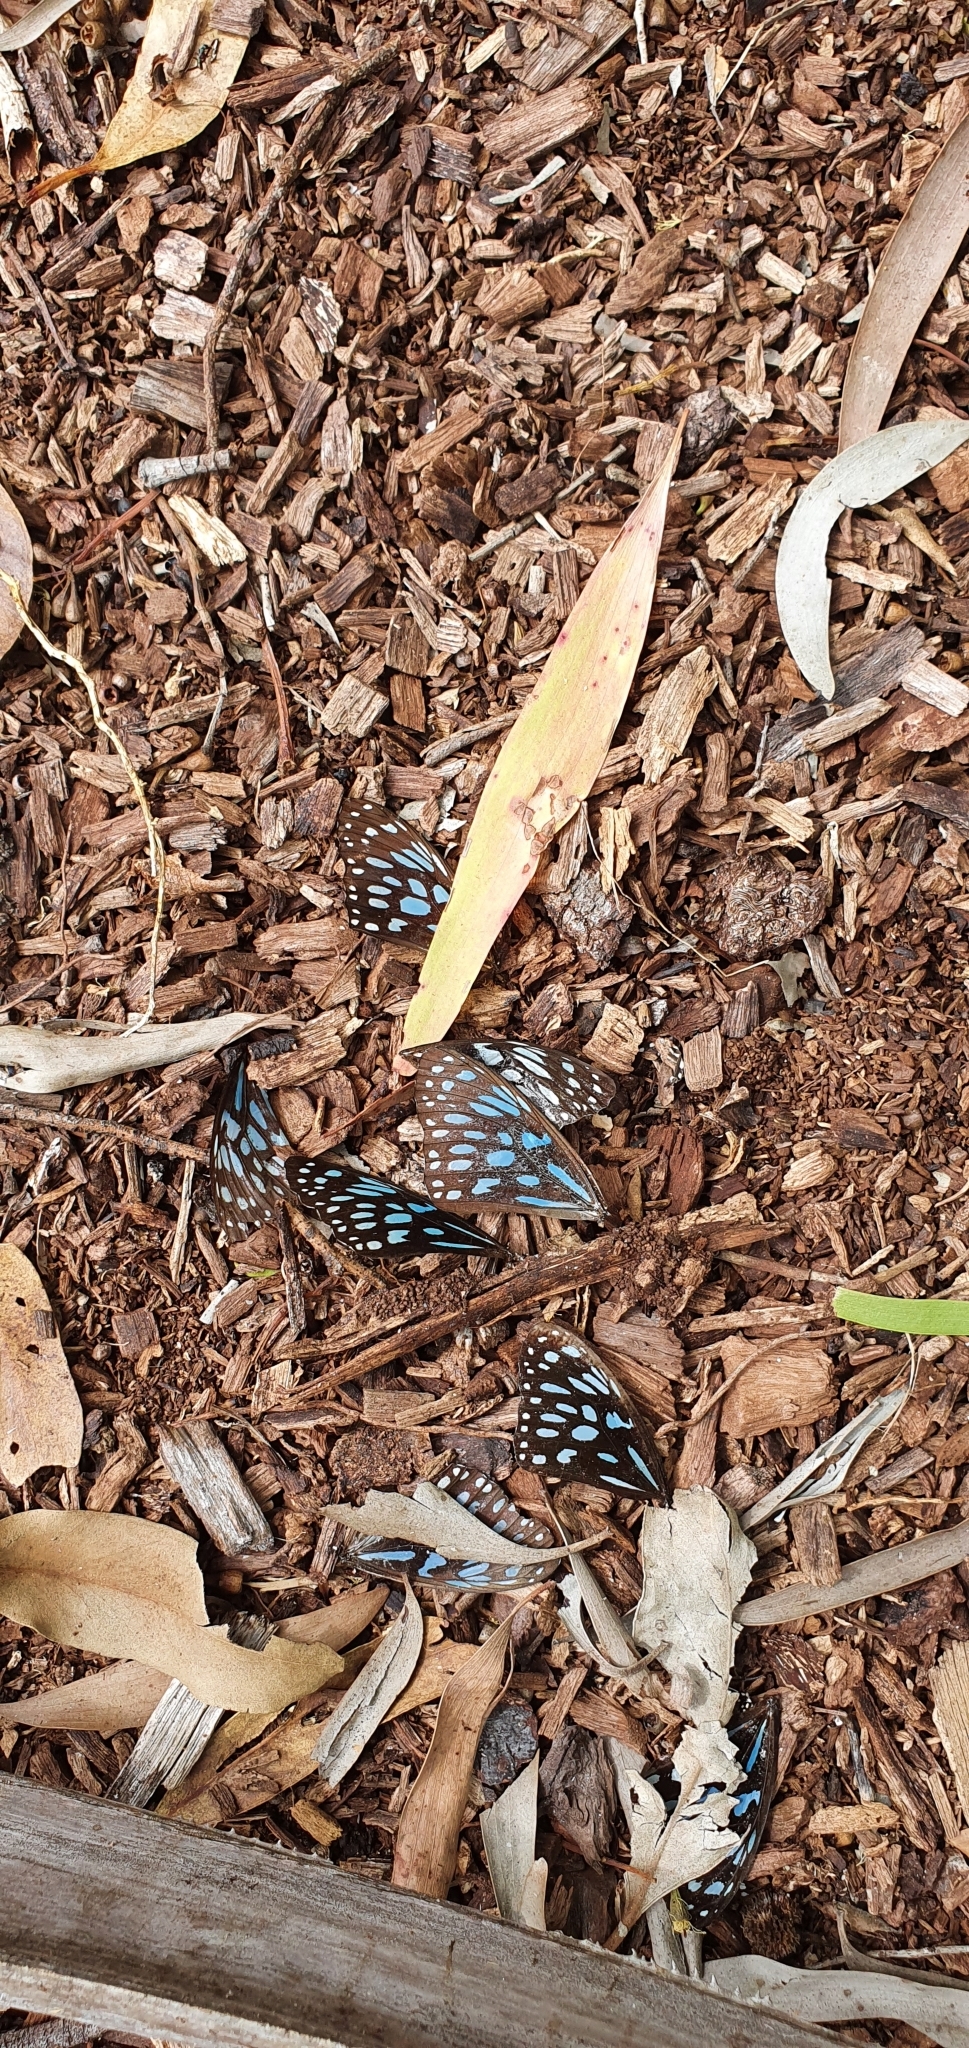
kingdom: Animalia
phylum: Arthropoda
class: Insecta
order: Lepidoptera
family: Nymphalidae
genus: Tirumala
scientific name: Tirumala hamata
